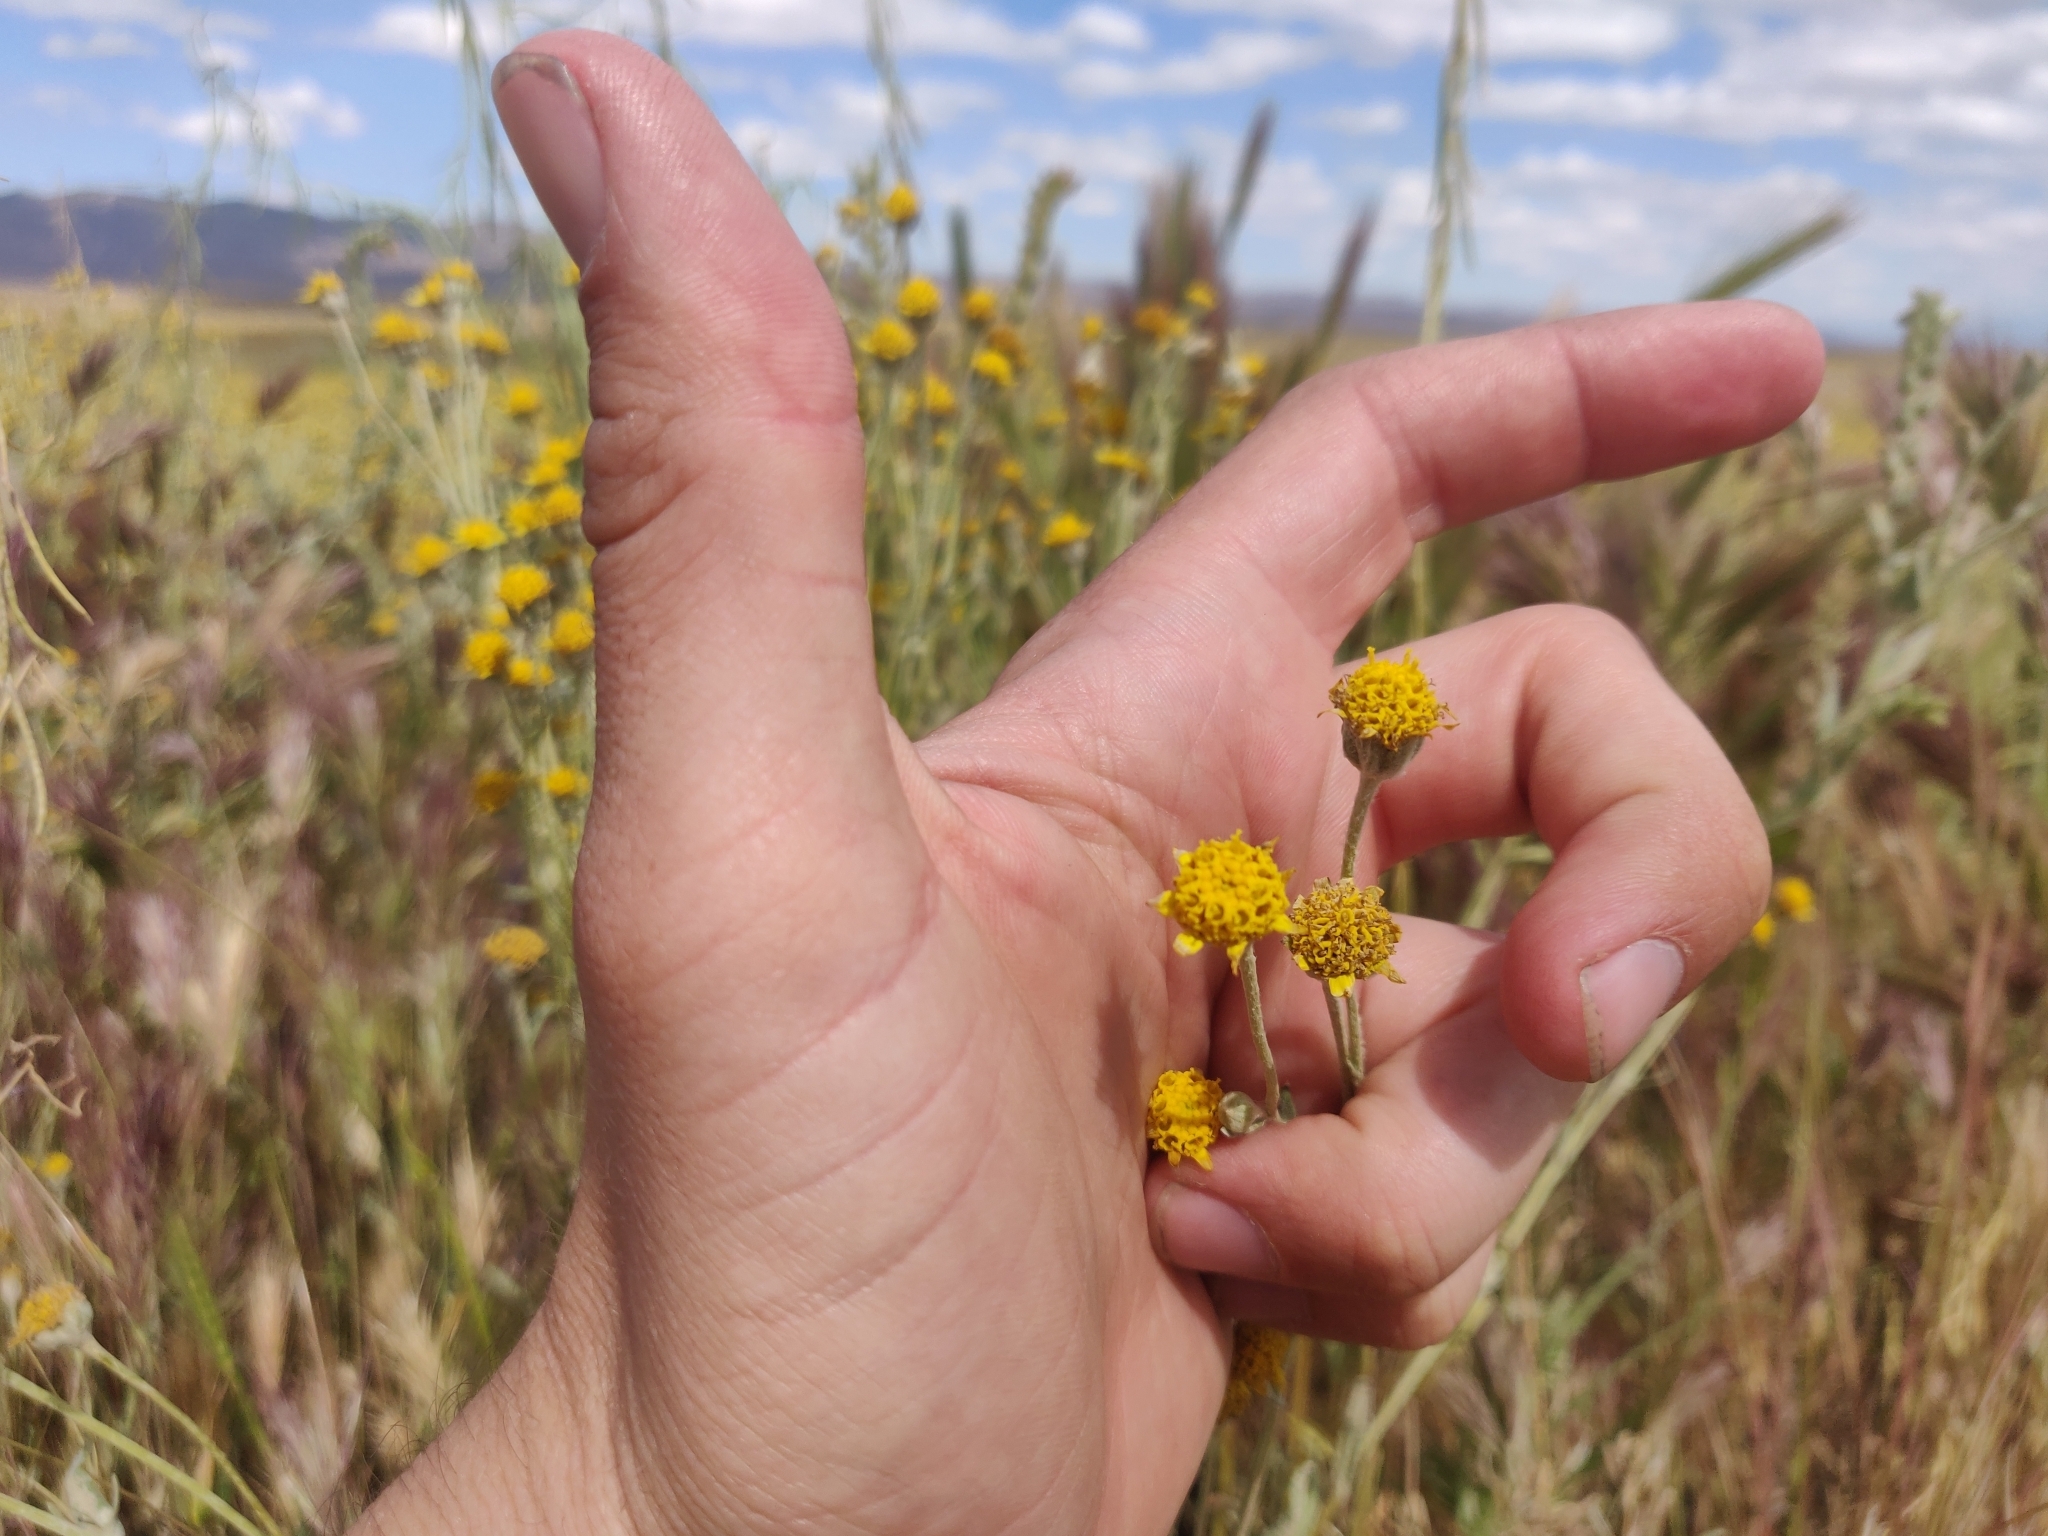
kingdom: Plantae
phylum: Tracheophyta
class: Magnoliopsida
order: Asterales
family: Asteraceae
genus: Chaenactis
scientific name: Chaenactis glabriuscula
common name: Yellow pincushion
